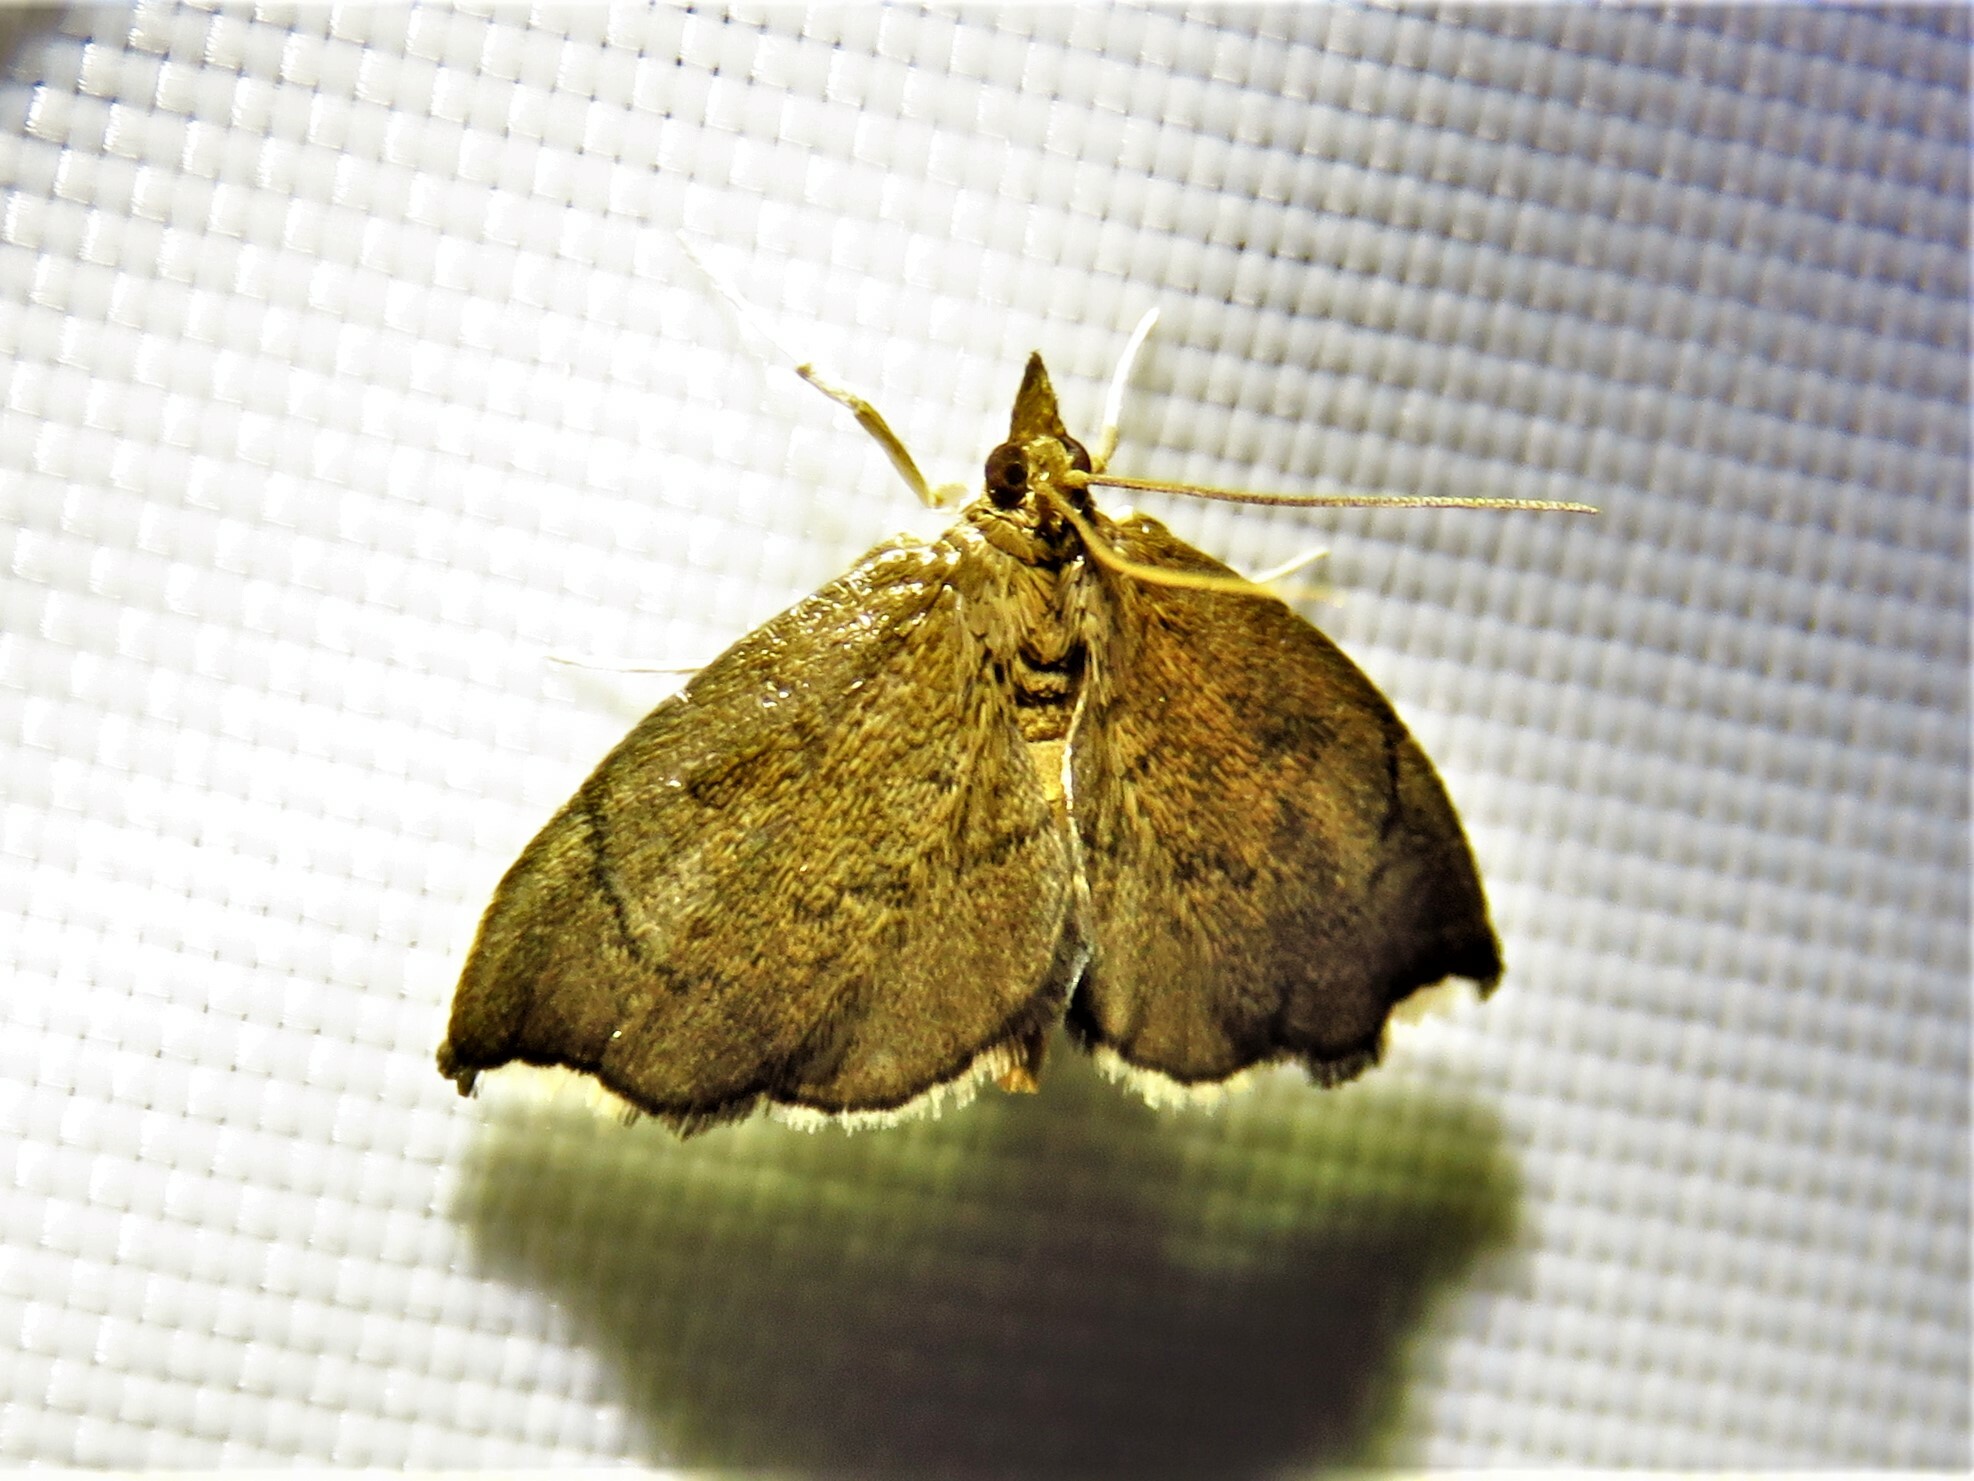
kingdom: Animalia
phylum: Arthropoda
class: Insecta
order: Lepidoptera
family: Crambidae
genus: Perispasta
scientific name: Perispasta caeculalis
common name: Titian peale's moth
